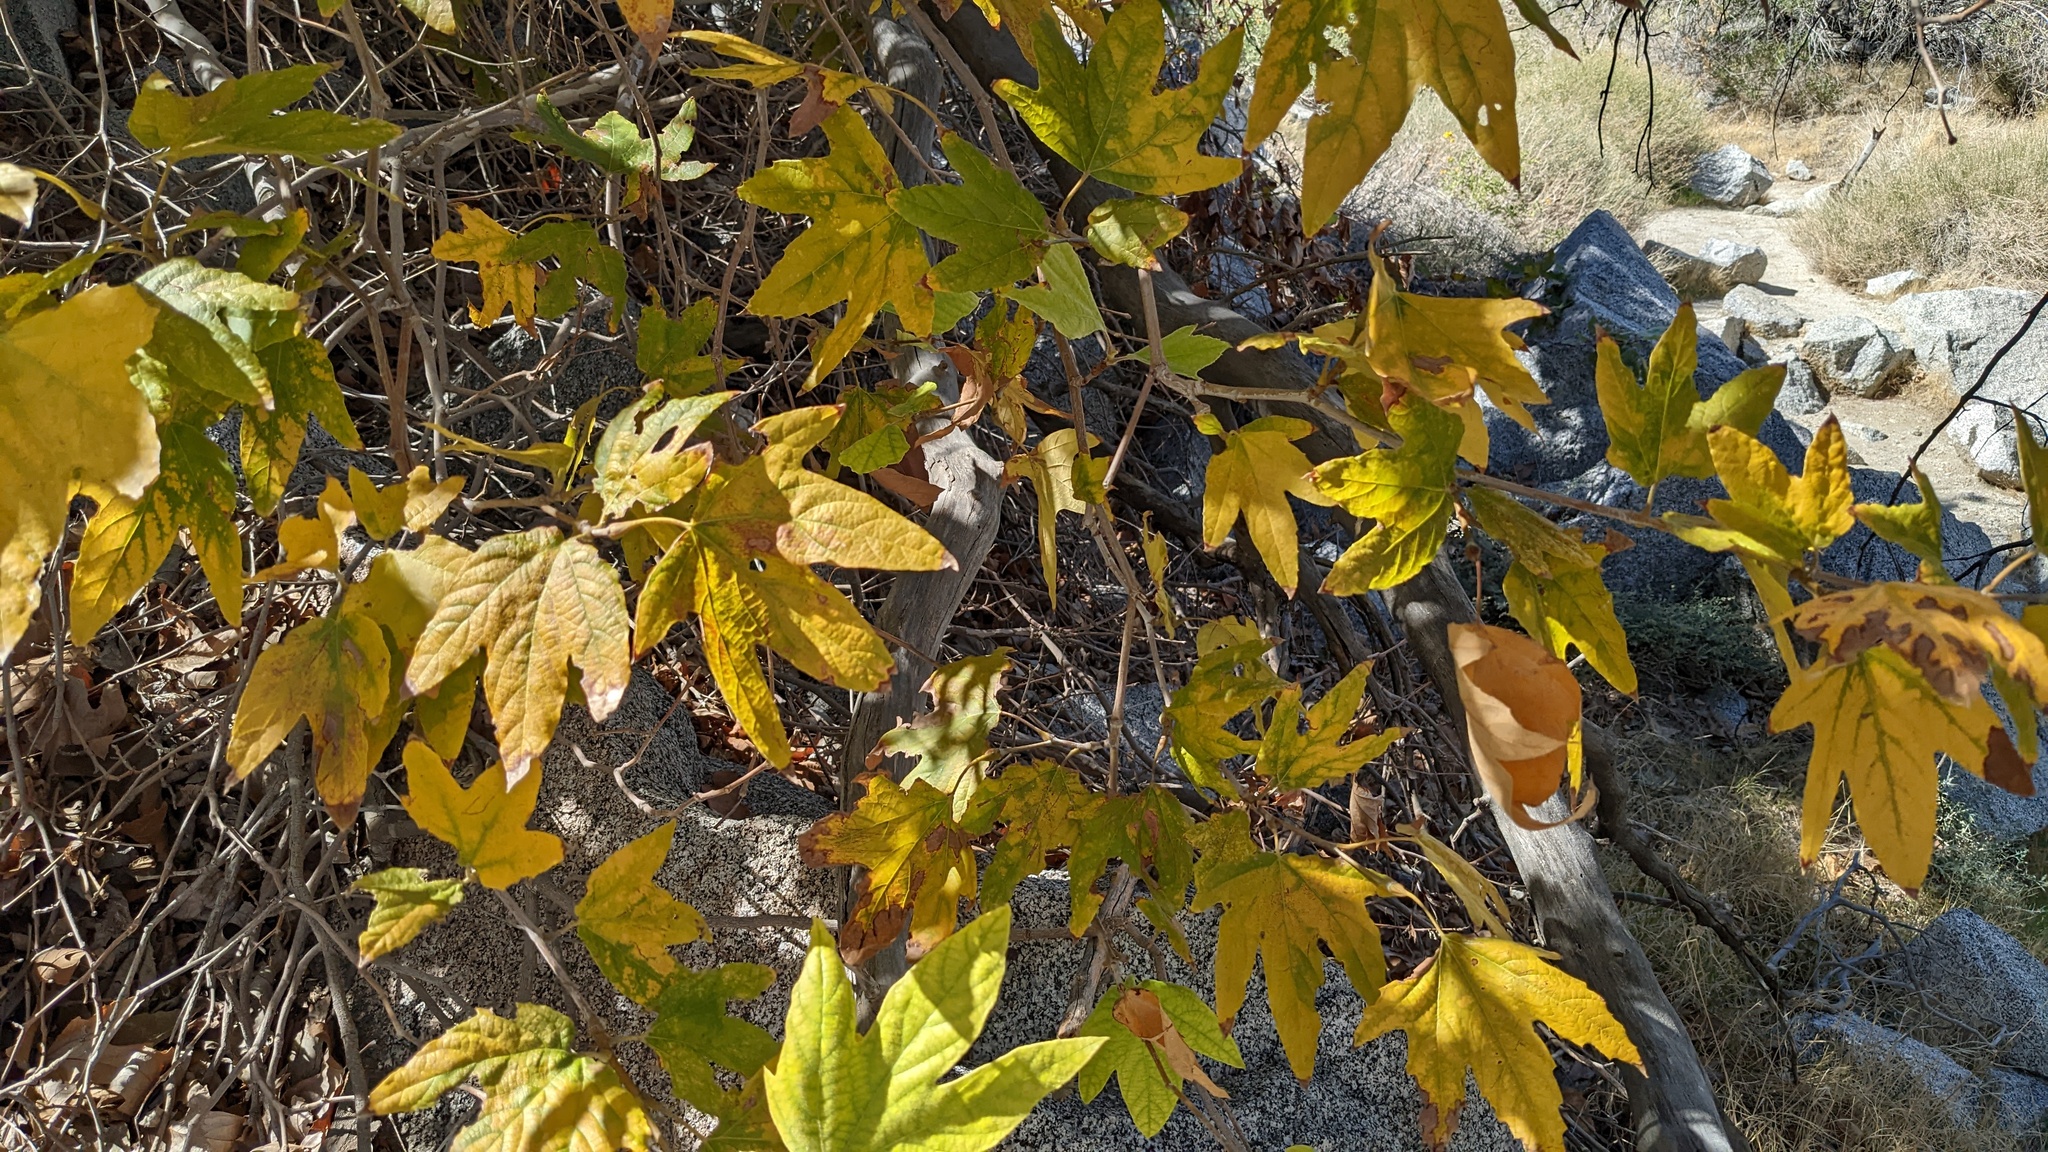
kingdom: Plantae
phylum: Tracheophyta
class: Magnoliopsida
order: Proteales
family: Platanaceae
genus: Platanus
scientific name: Platanus racemosa
